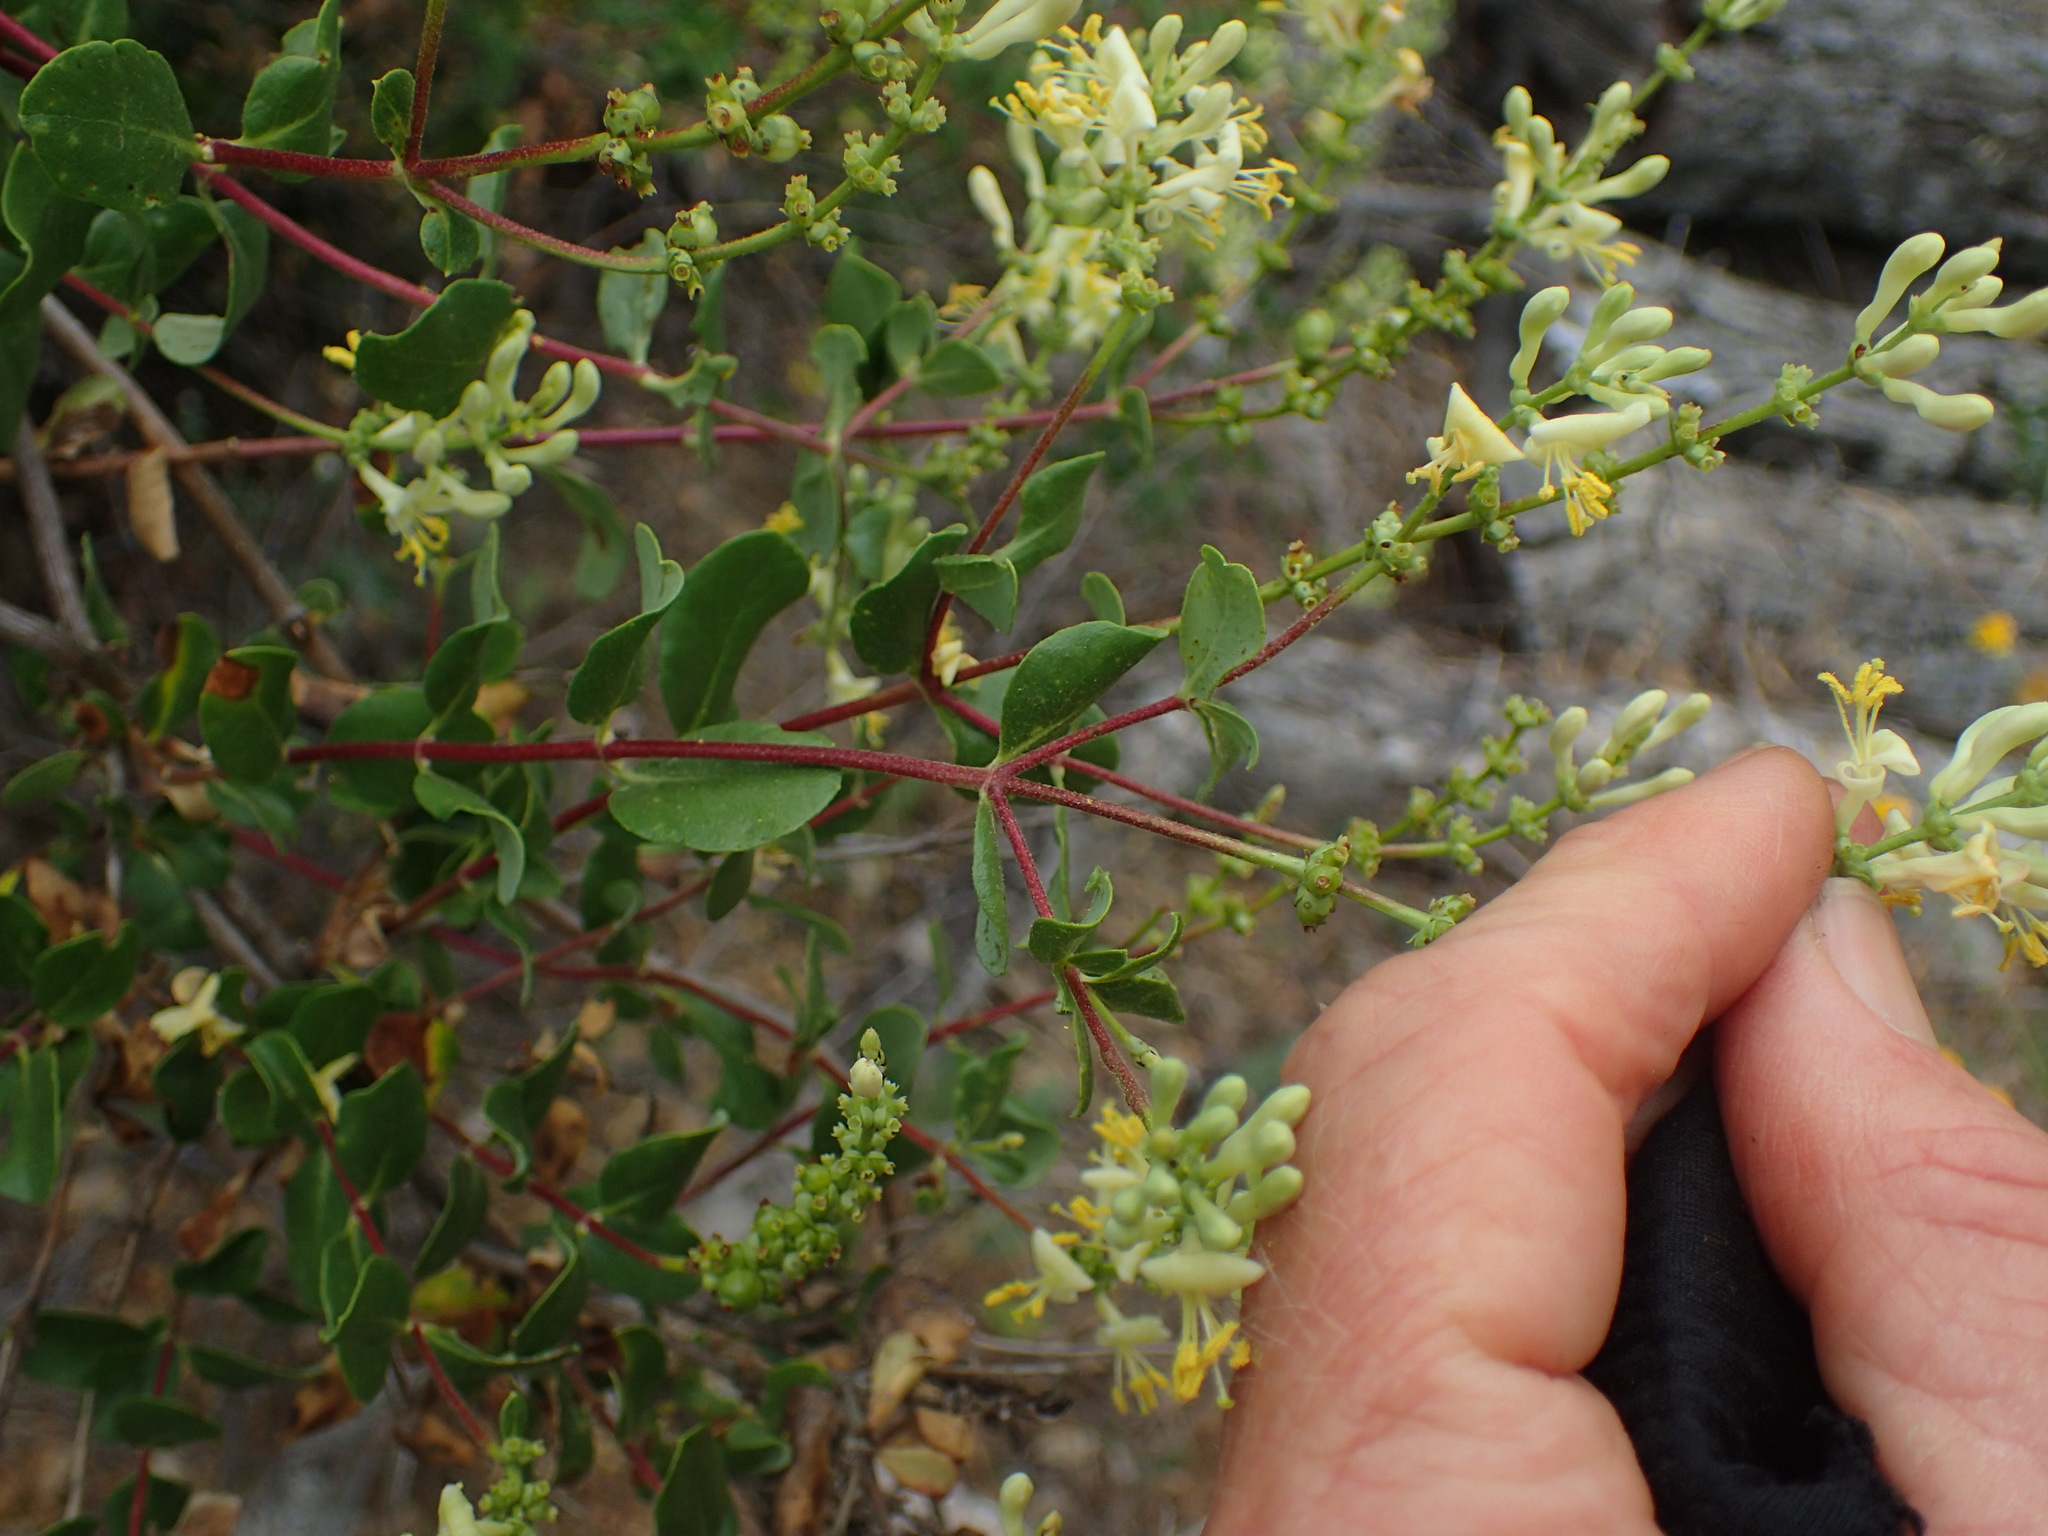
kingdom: Plantae
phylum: Tracheophyta
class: Magnoliopsida
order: Dipsacales
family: Caprifoliaceae
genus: Lonicera
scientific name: Lonicera subspicata
